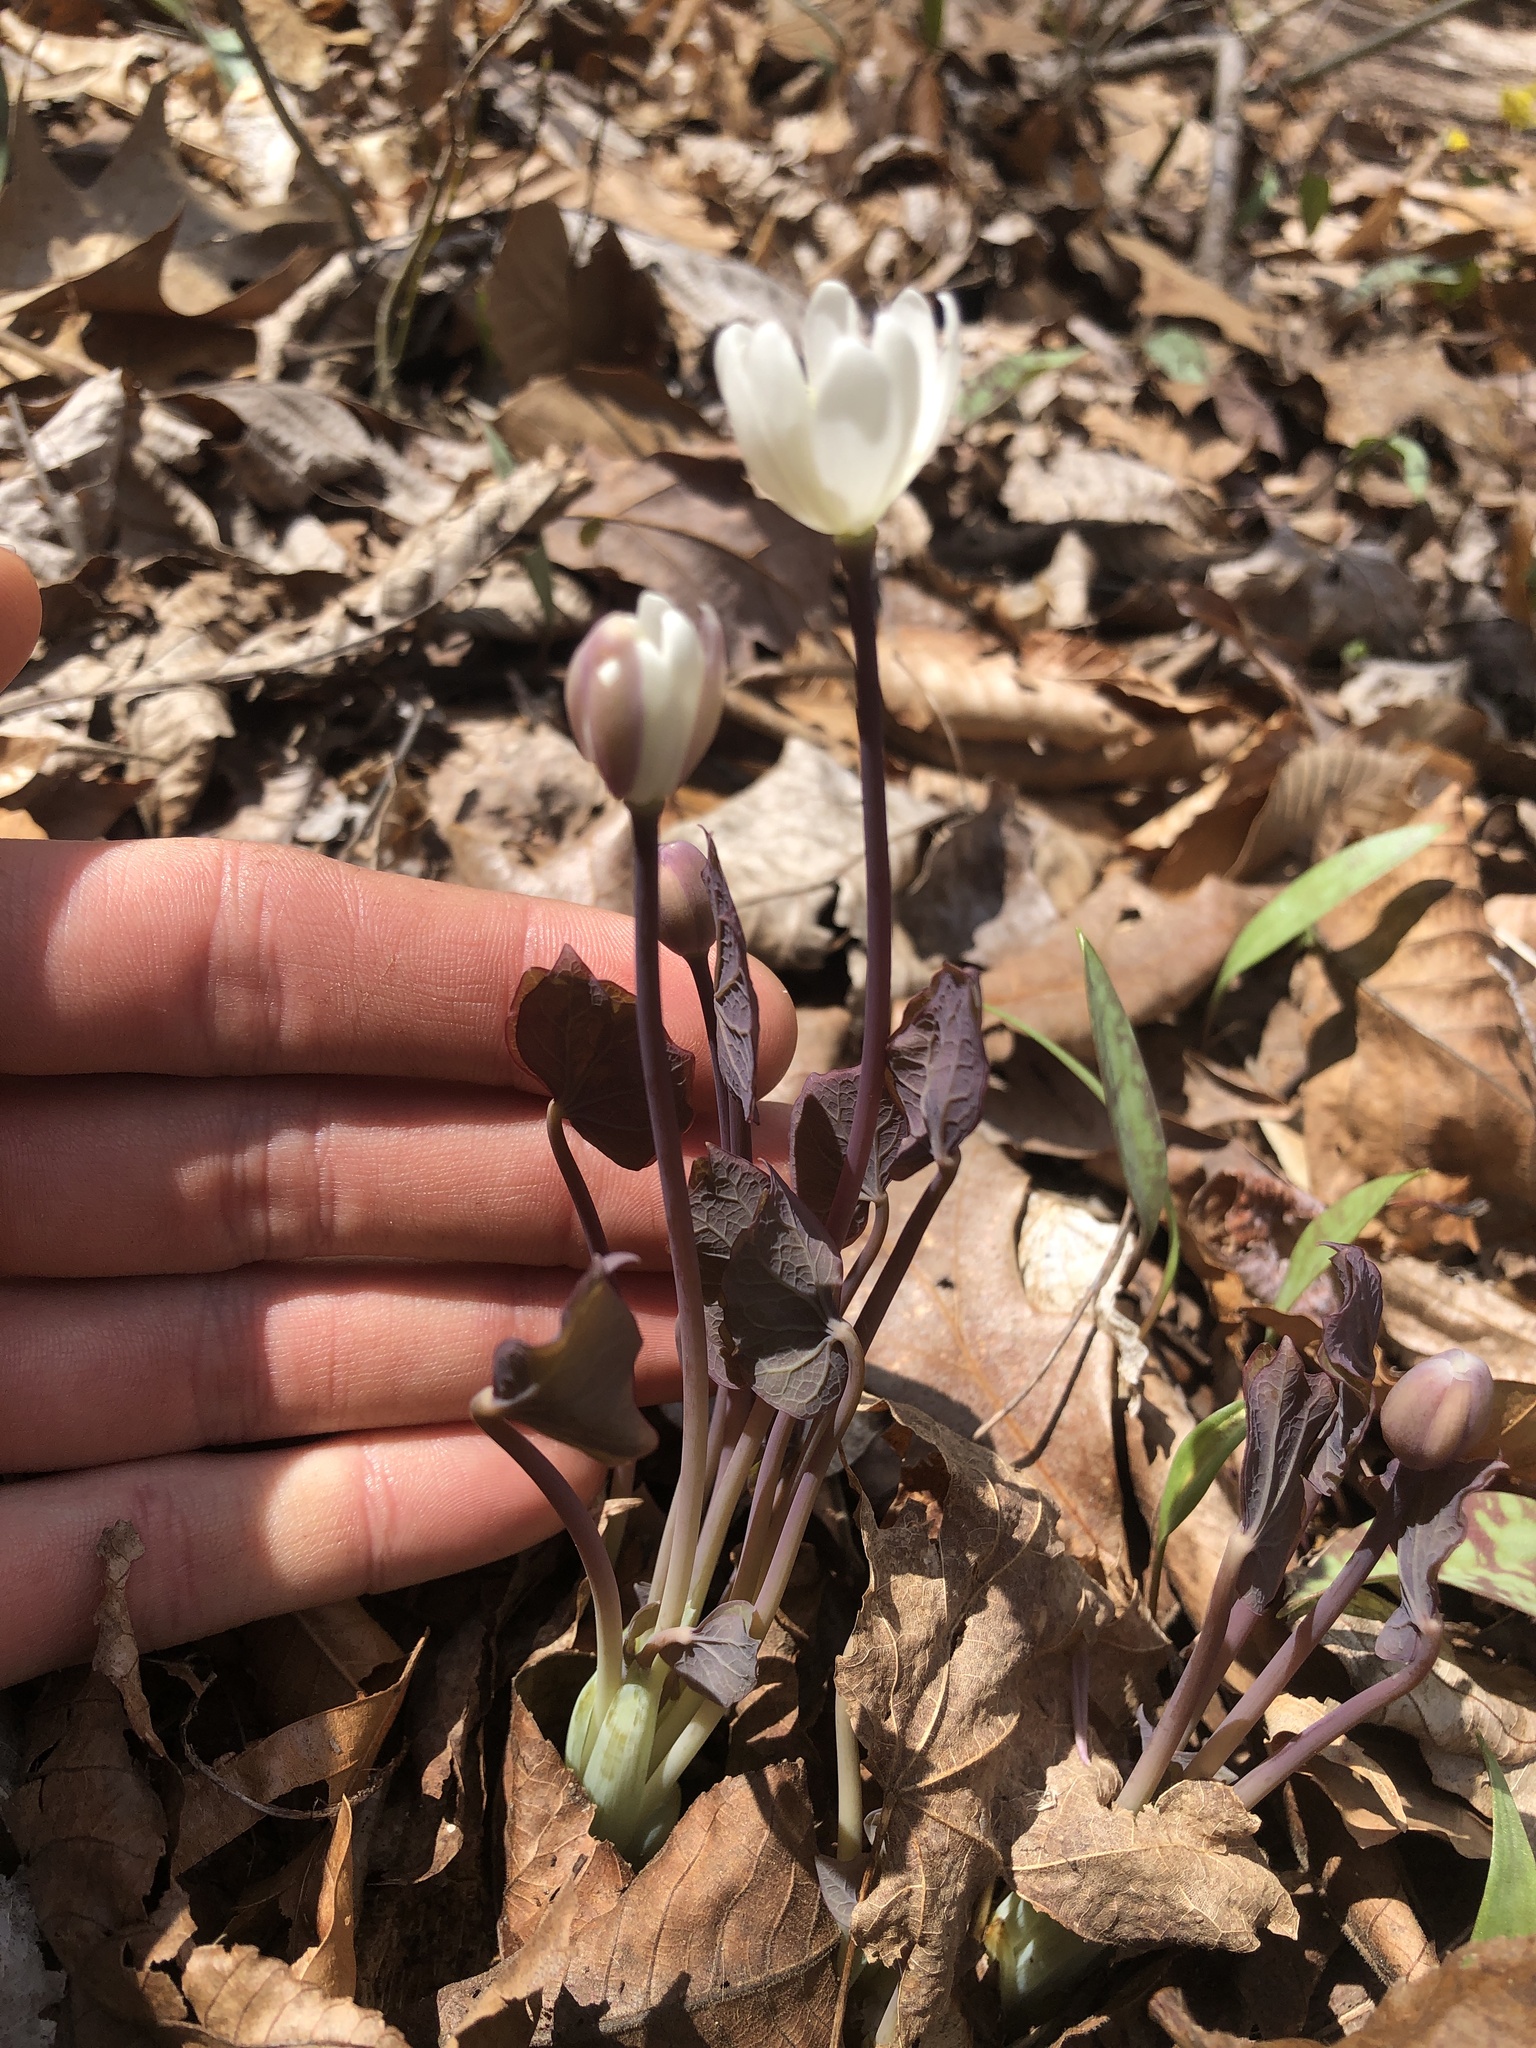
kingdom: Plantae
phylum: Tracheophyta
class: Magnoliopsida
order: Ranunculales
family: Berberidaceae
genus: Jeffersonia
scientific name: Jeffersonia diphylla
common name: Rheumatism-root
